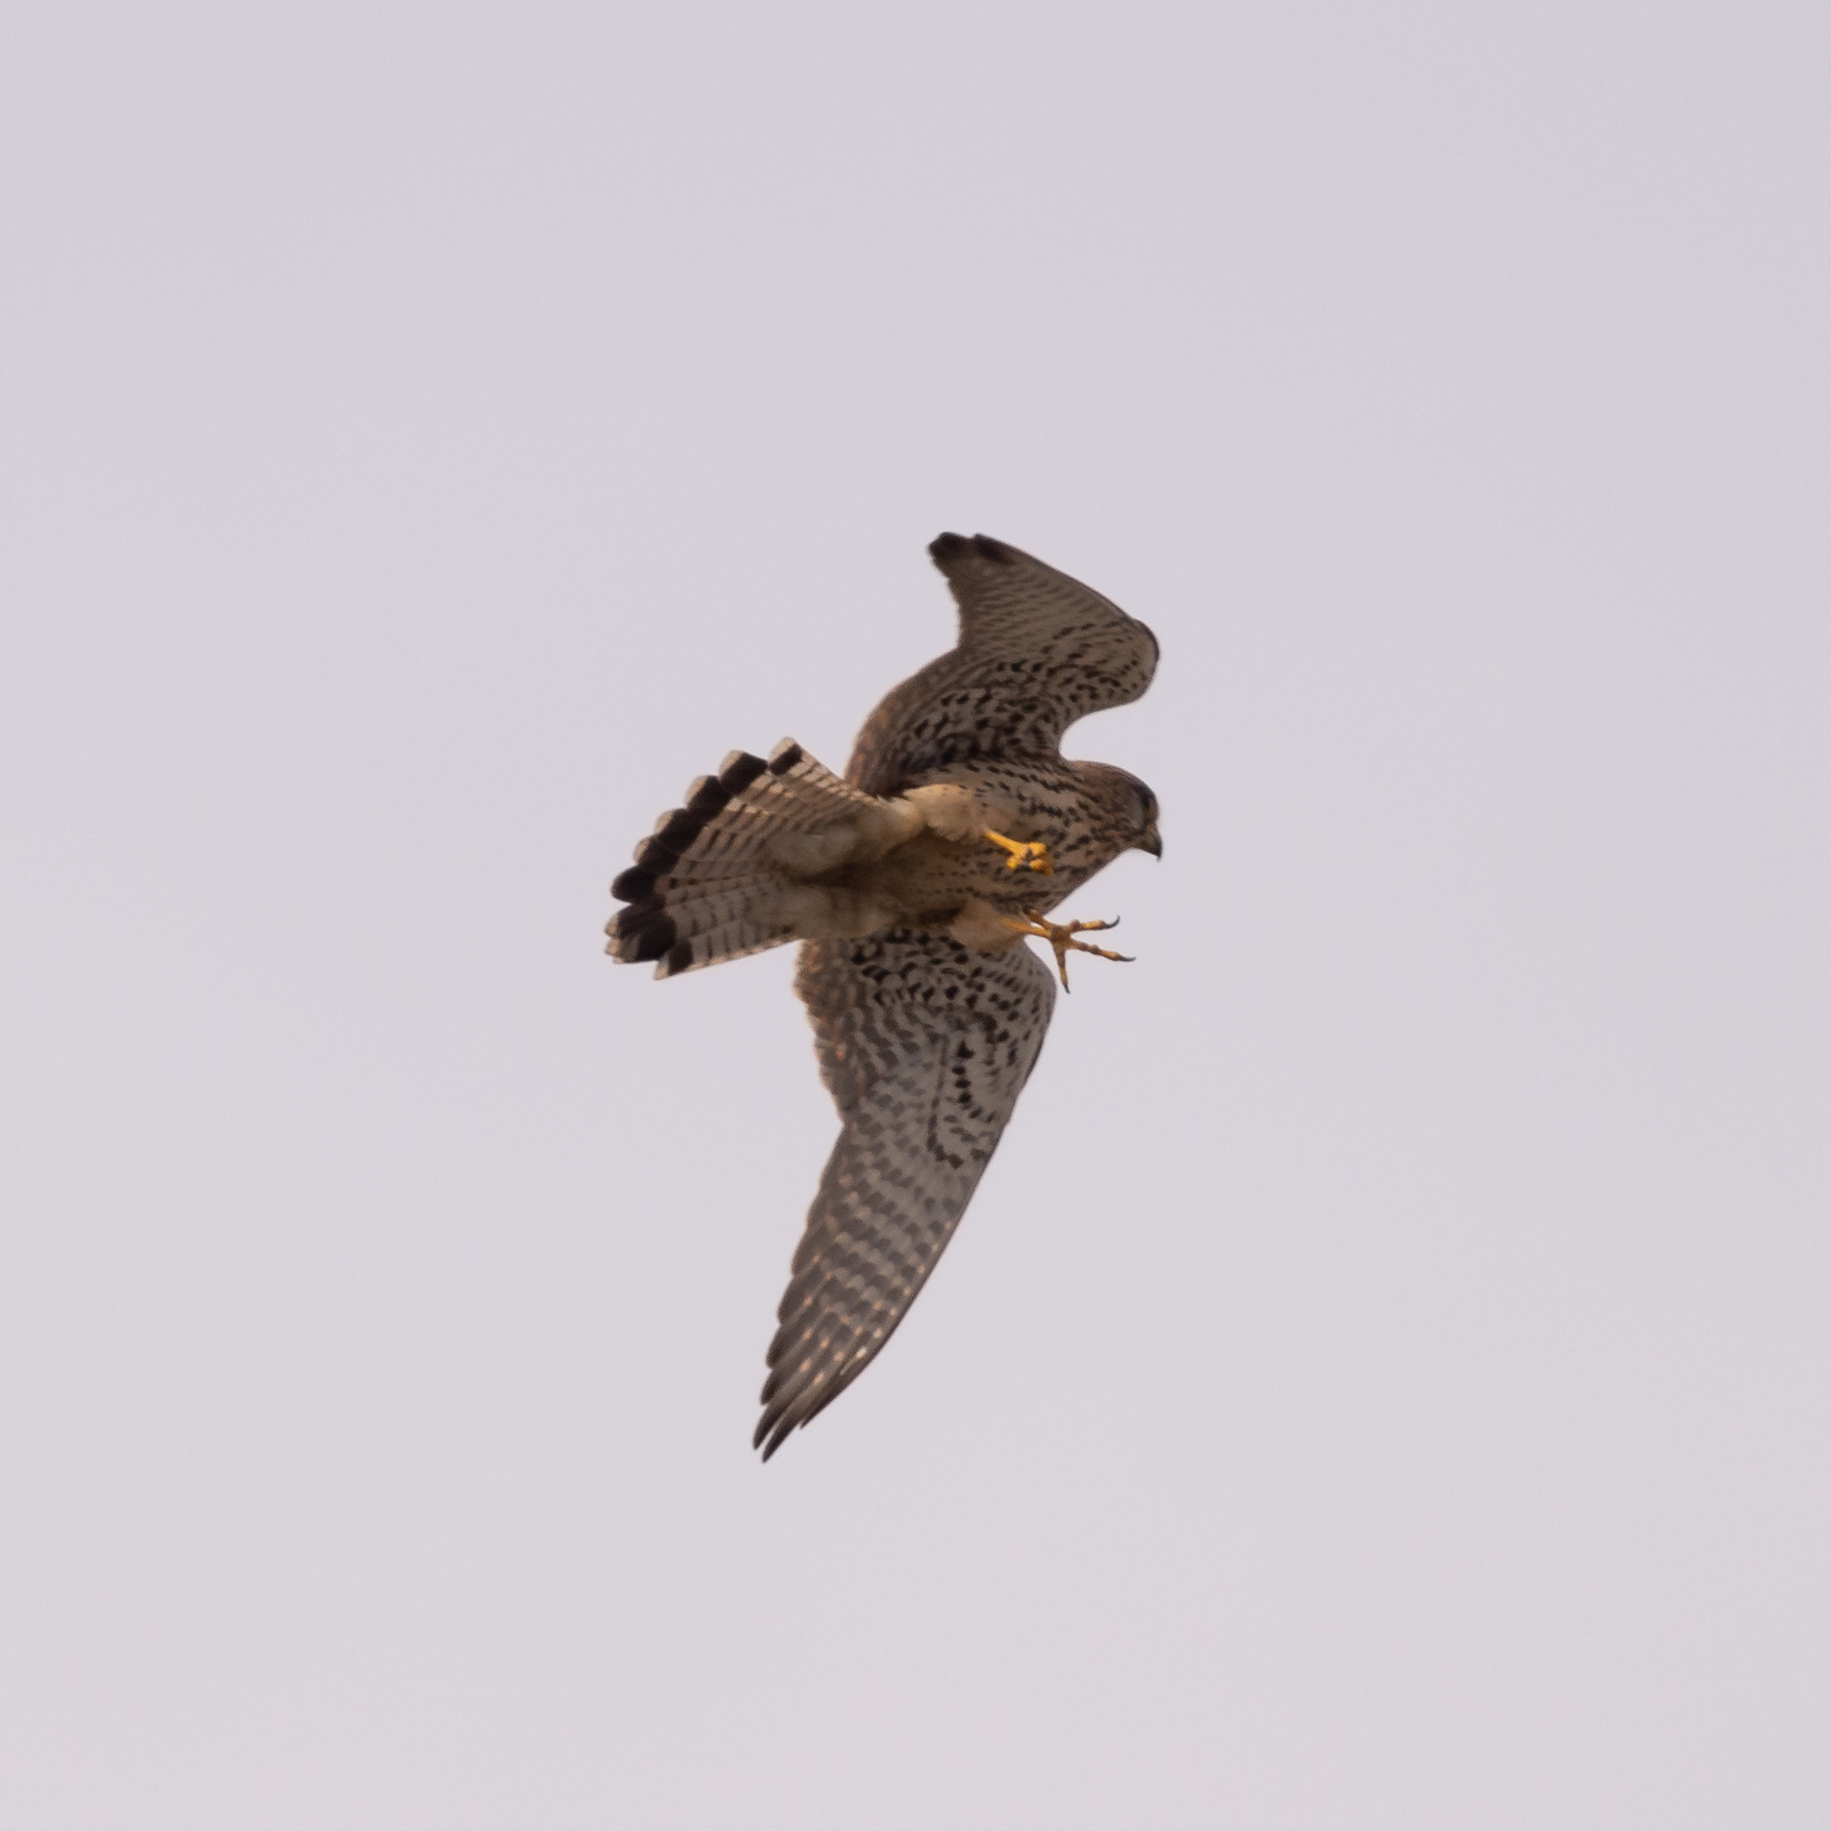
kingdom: Animalia
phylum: Chordata
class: Aves
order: Falconiformes
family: Falconidae
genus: Falco
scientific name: Falco tinnunculus
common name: Common kestrel
